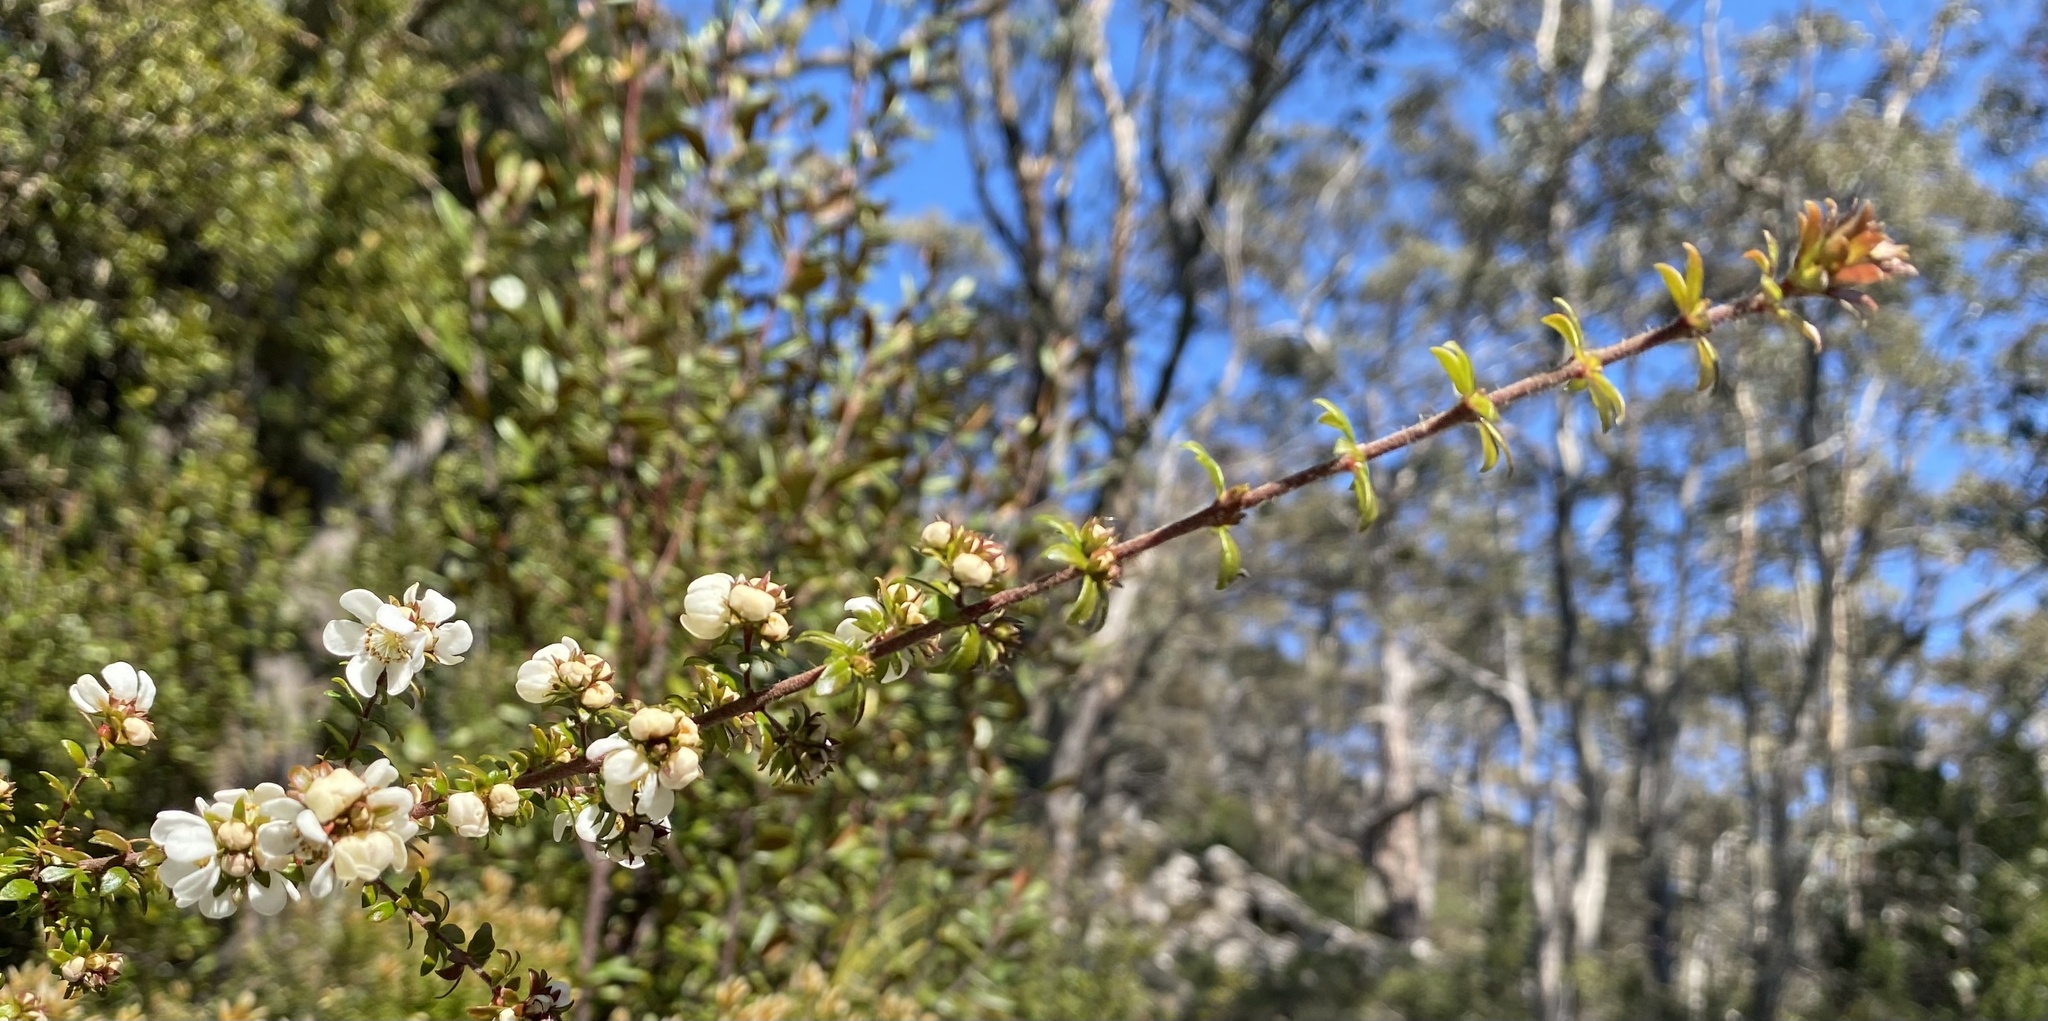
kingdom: Plantae
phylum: Tracheophyta
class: Magnoliopsida
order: Oxalidales
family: Cunoniaceae
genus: Bauera
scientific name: Bauera rubioides
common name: River-rose
